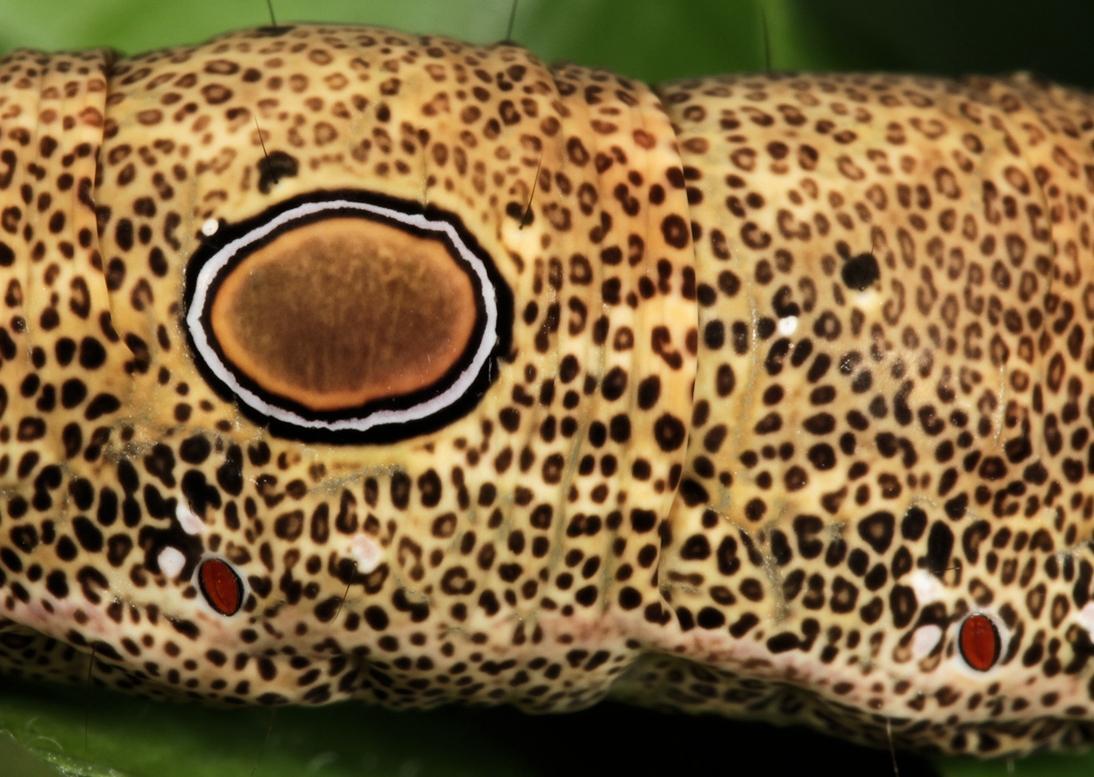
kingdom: Animalia
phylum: Arthropoda
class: Insecta
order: Lepidoptera
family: Erebidae
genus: Erebus
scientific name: Erebus walkeri
